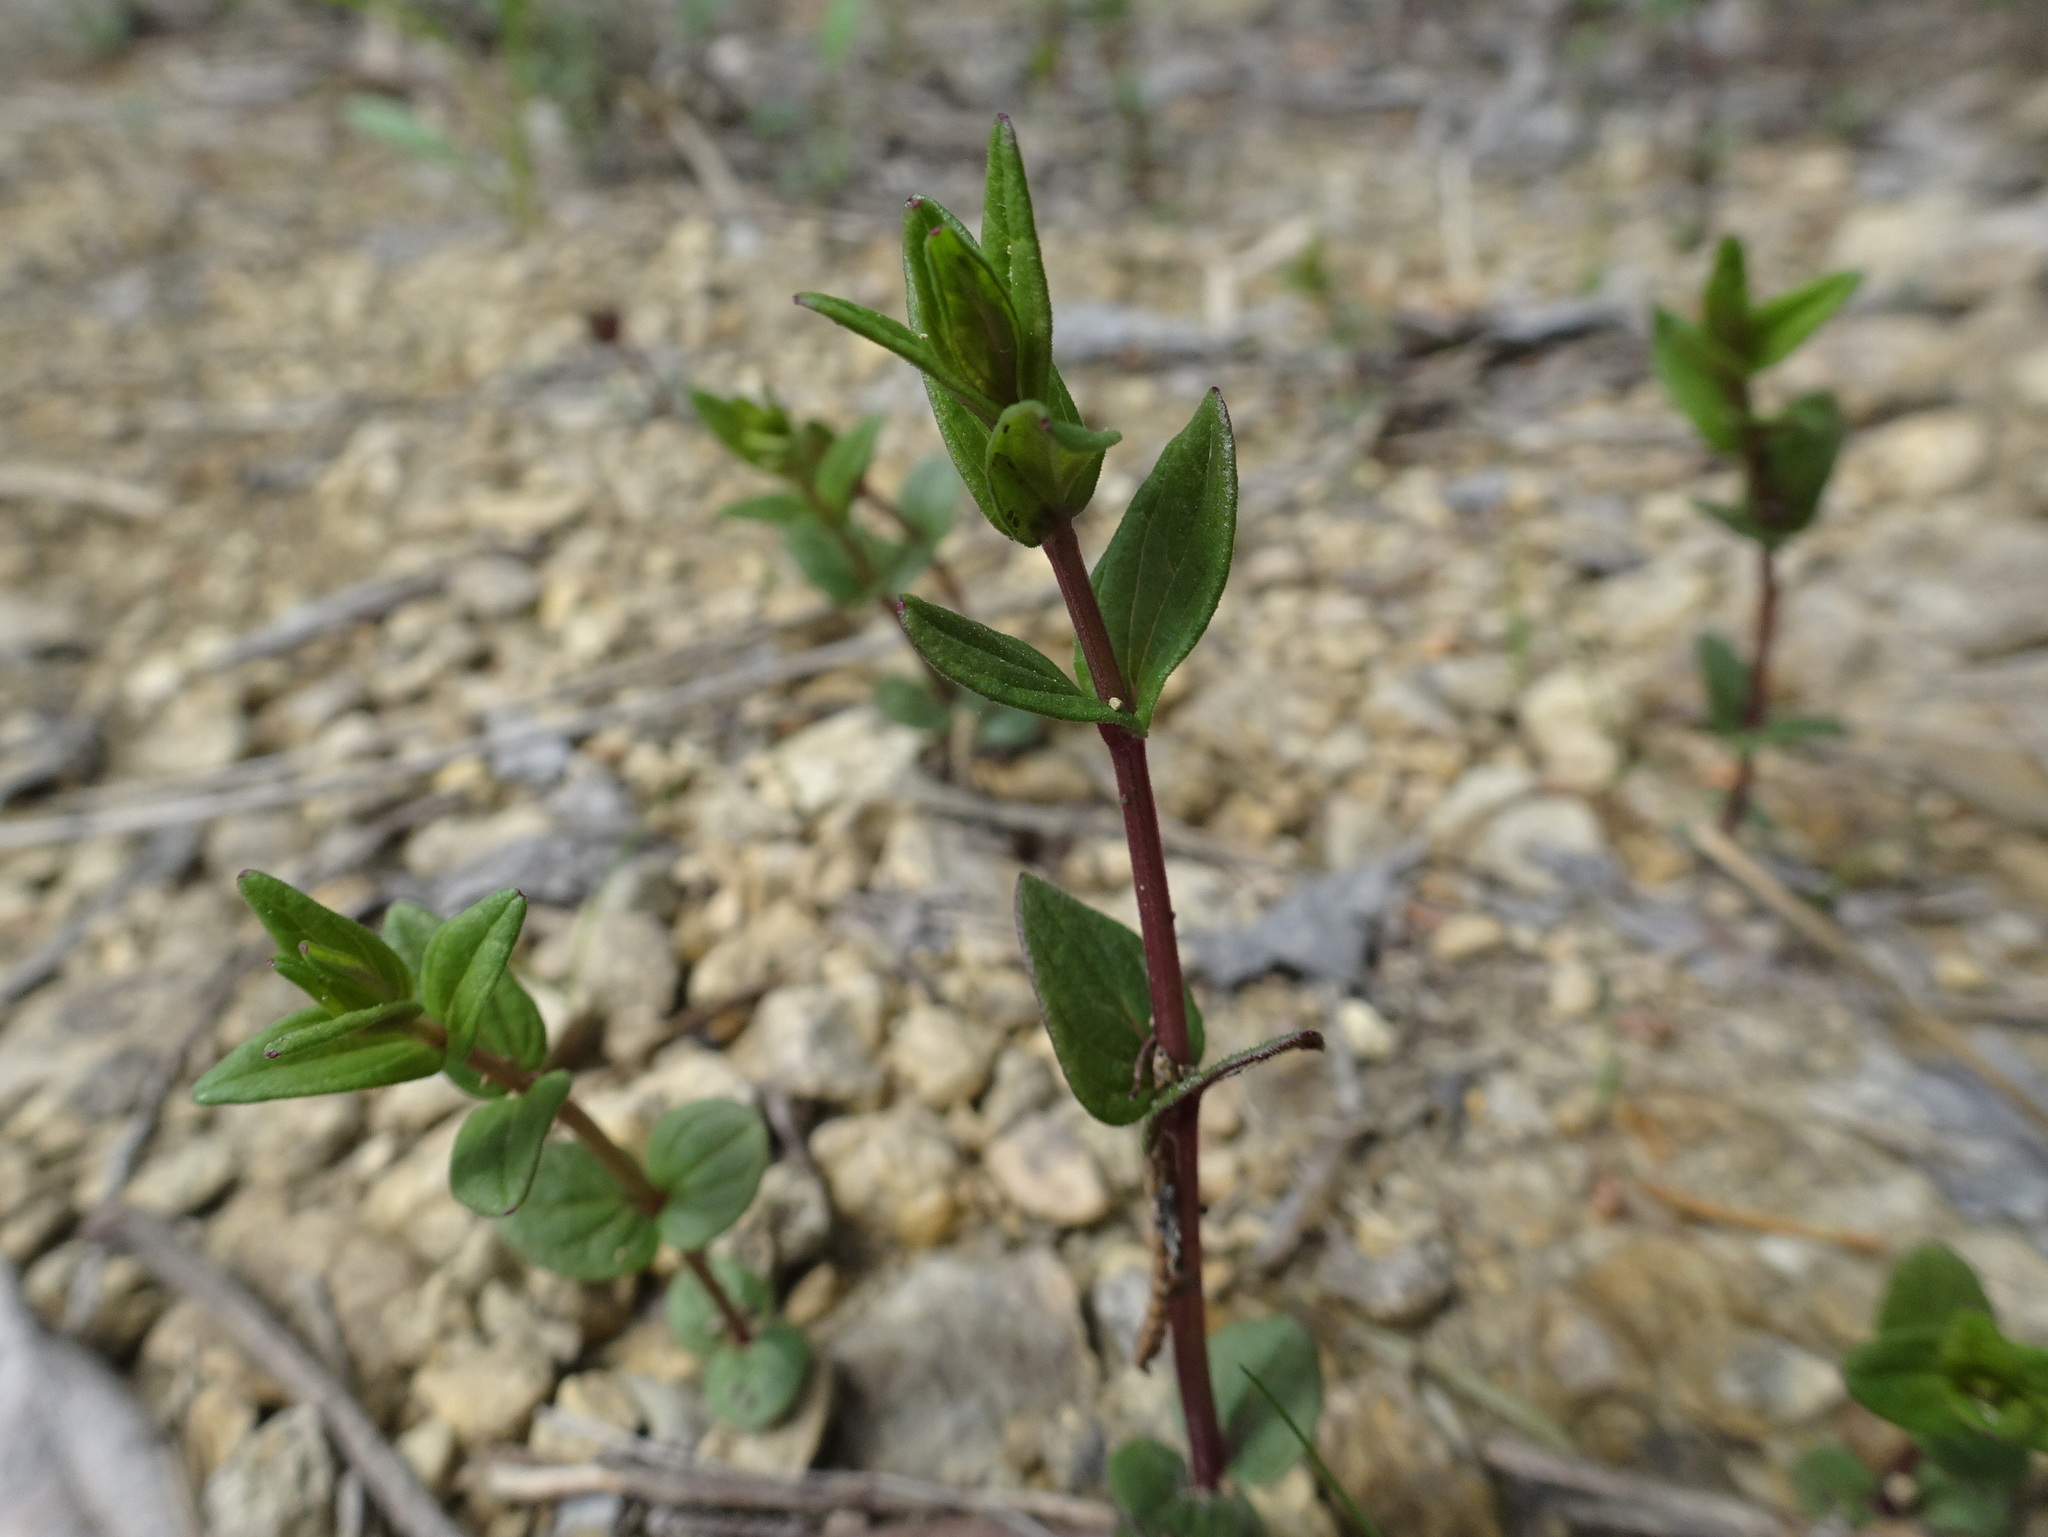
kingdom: Plantae
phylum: Tracheophyta
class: Magnoliopsida
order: Lamiales
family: Lamiaceae
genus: Scutellaria
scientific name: Scutellaria parvula
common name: Little scullcap
